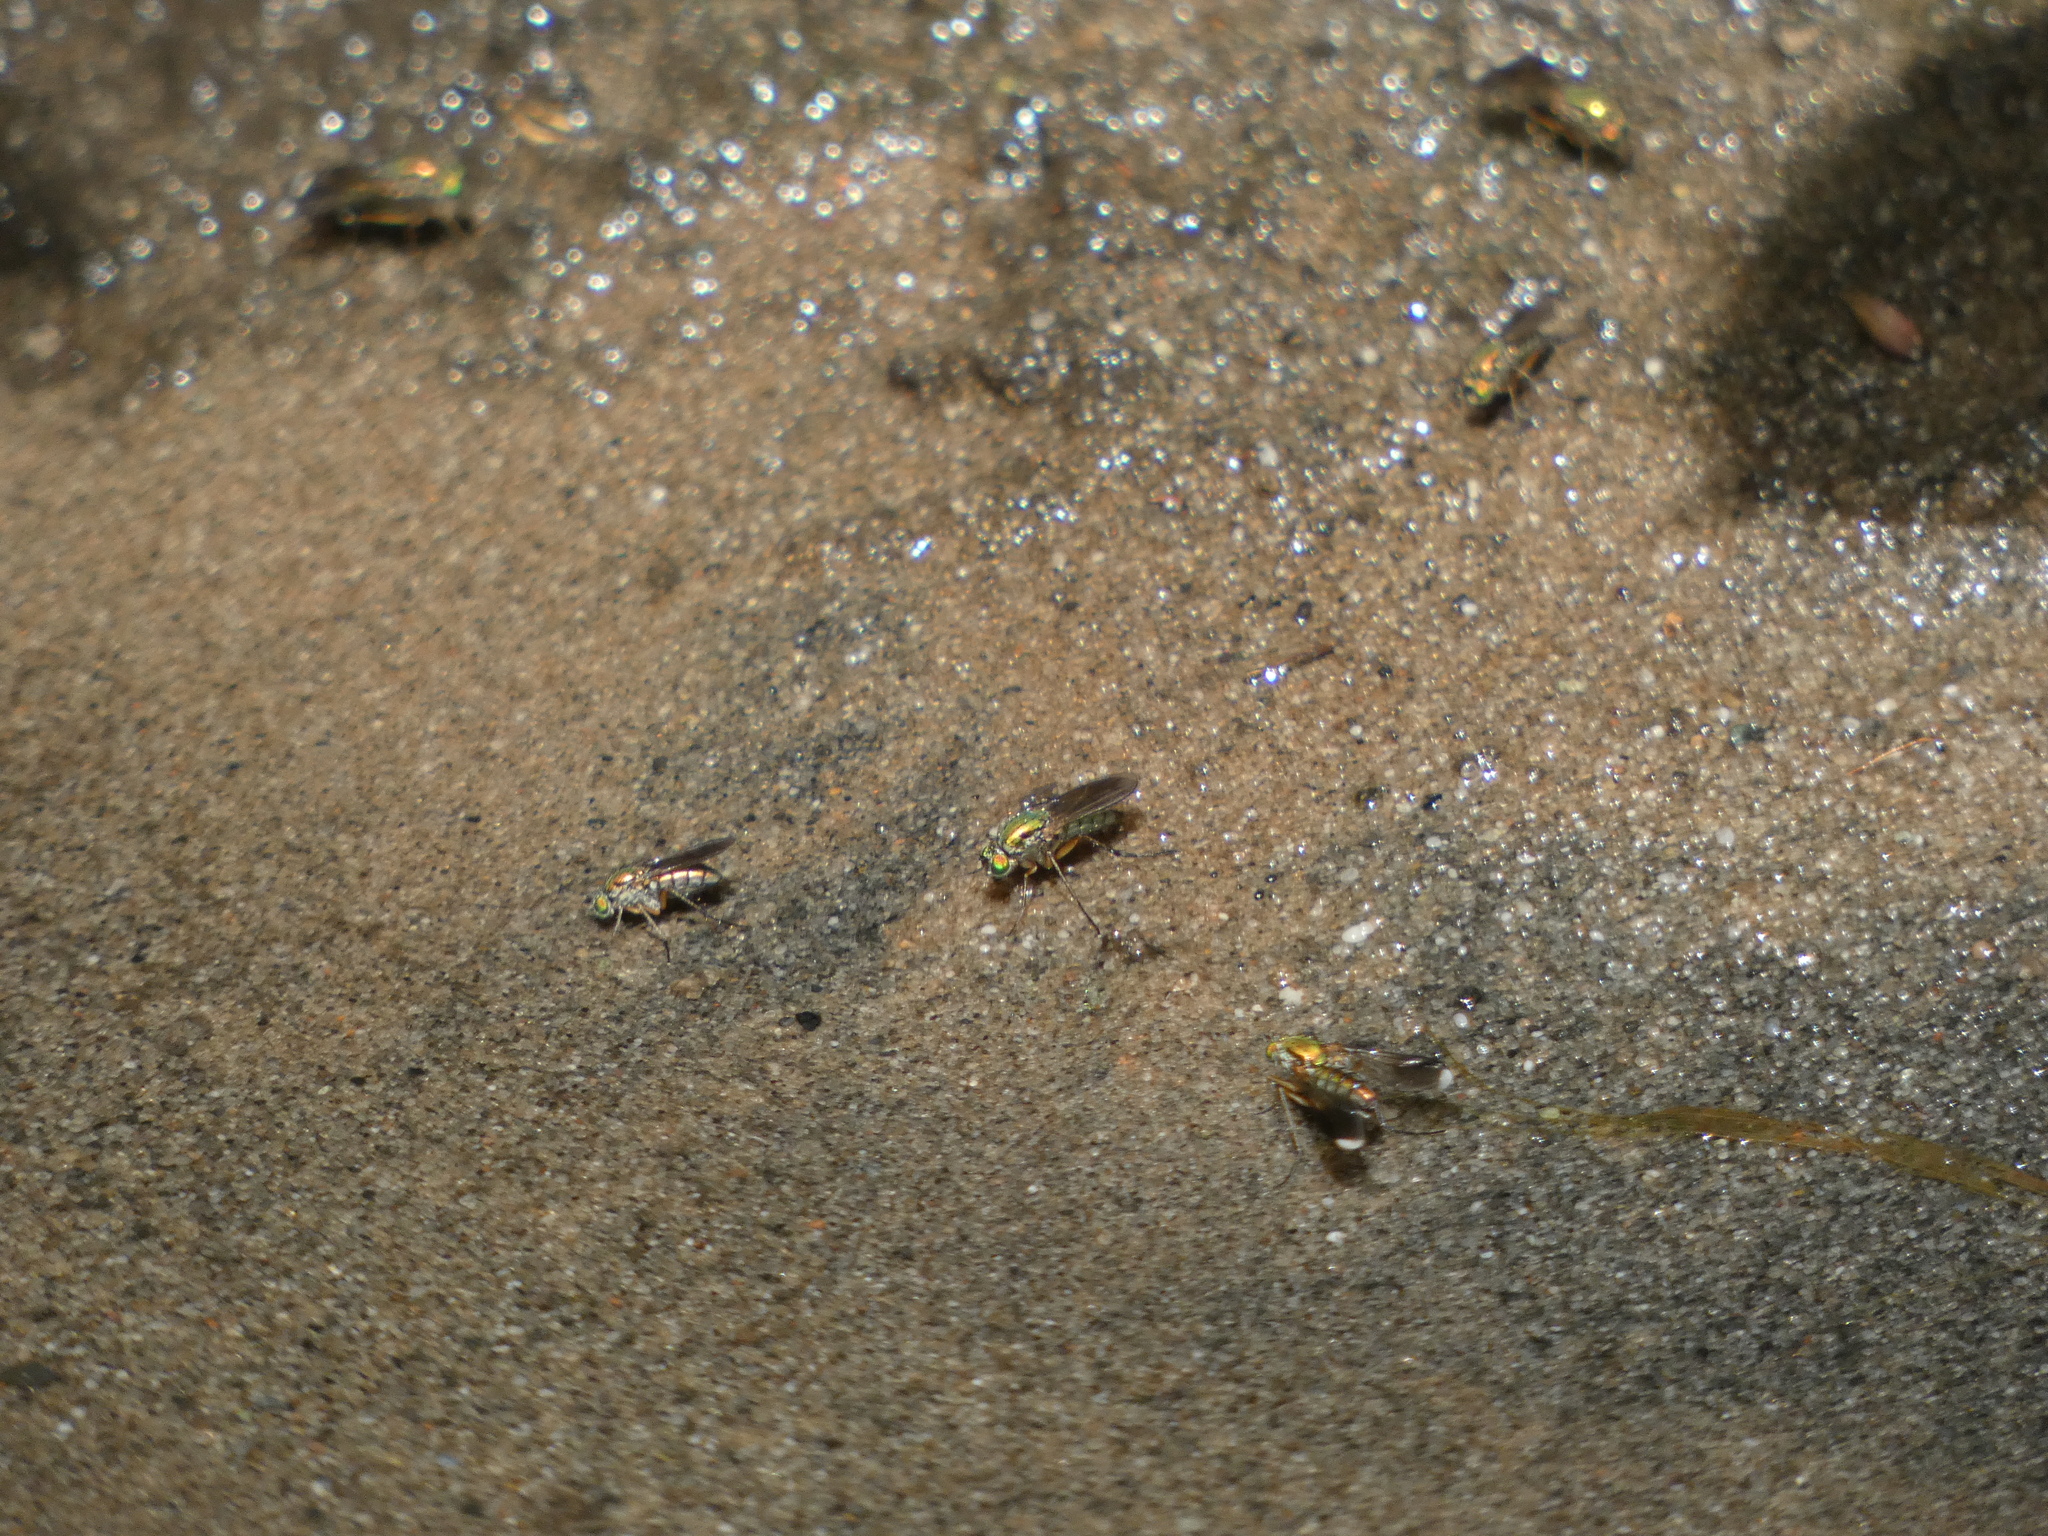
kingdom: Animalia
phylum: Arthropoda
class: Insecta
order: Diptera
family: Dolichopodidae
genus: Poecilobothrus
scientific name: Poecilobothrus nobilitatus
